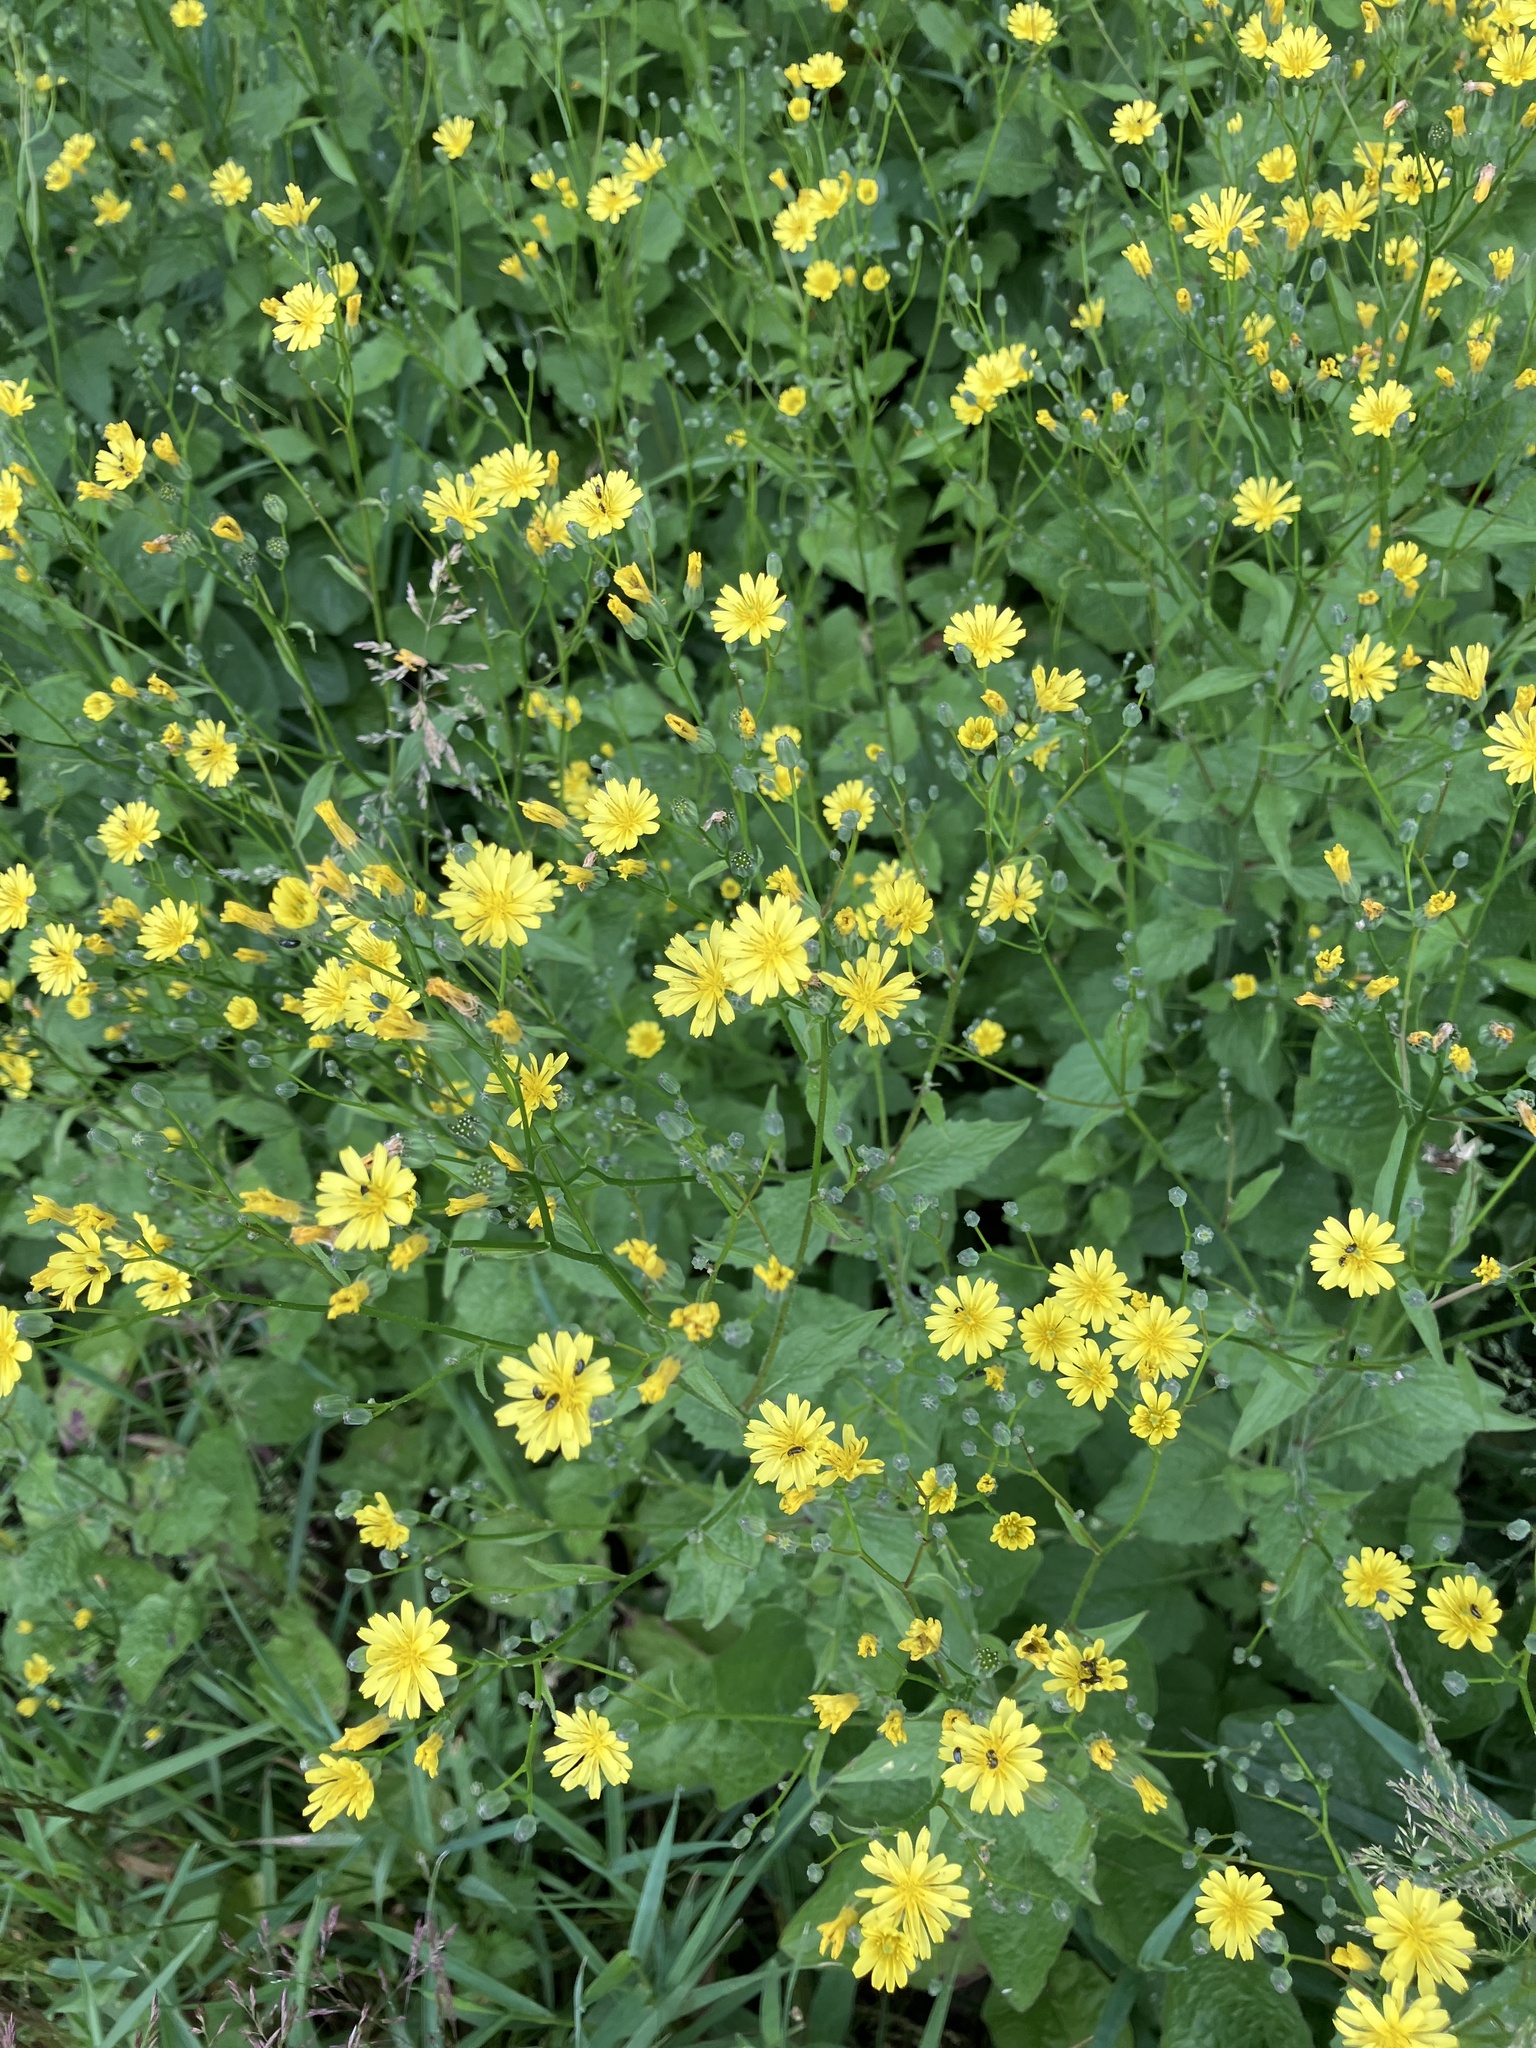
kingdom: Plantae
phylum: Tracheophyta
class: Magnoliopsida
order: Asterales
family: Asteraceae
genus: Lapsana
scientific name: Lapsana communis
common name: Nipplewort
